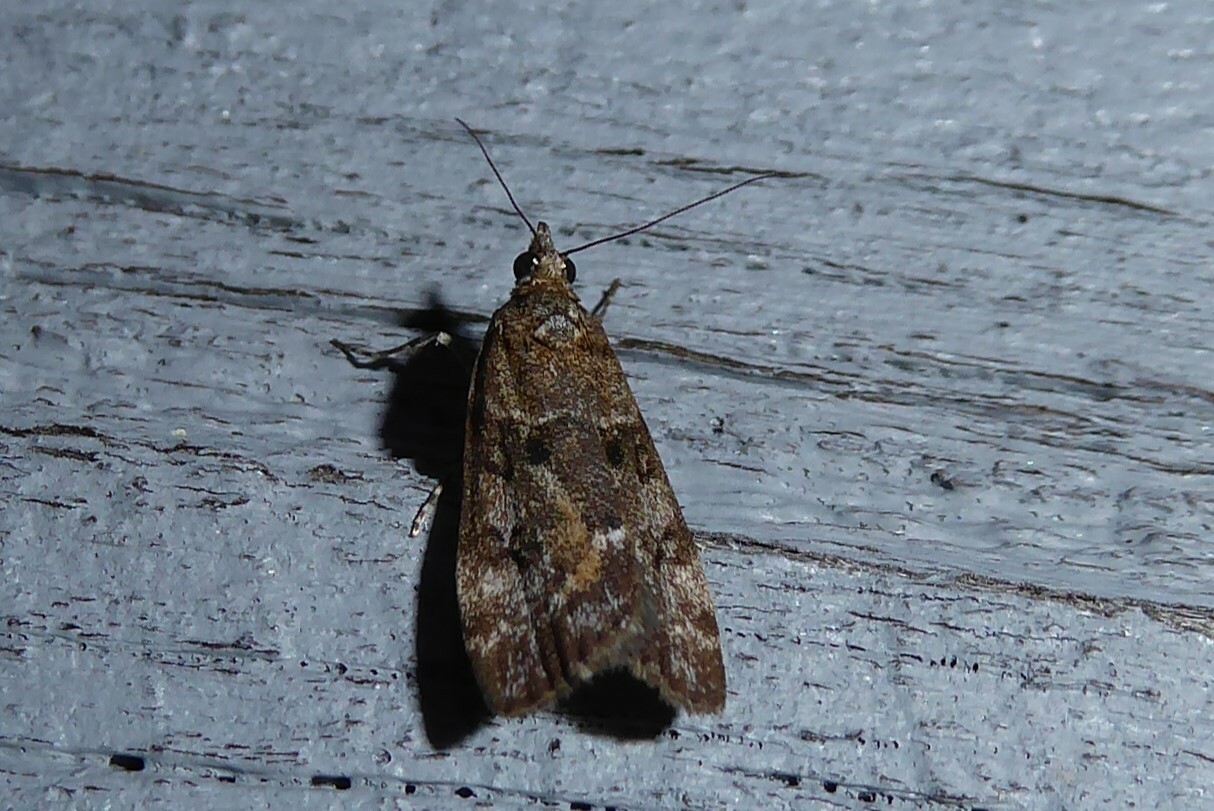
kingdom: Animalia
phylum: Arthropoda
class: Insecta
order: Lepidoptera
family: Crambidae
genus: Eudonia
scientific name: Eudonia submarginalis
